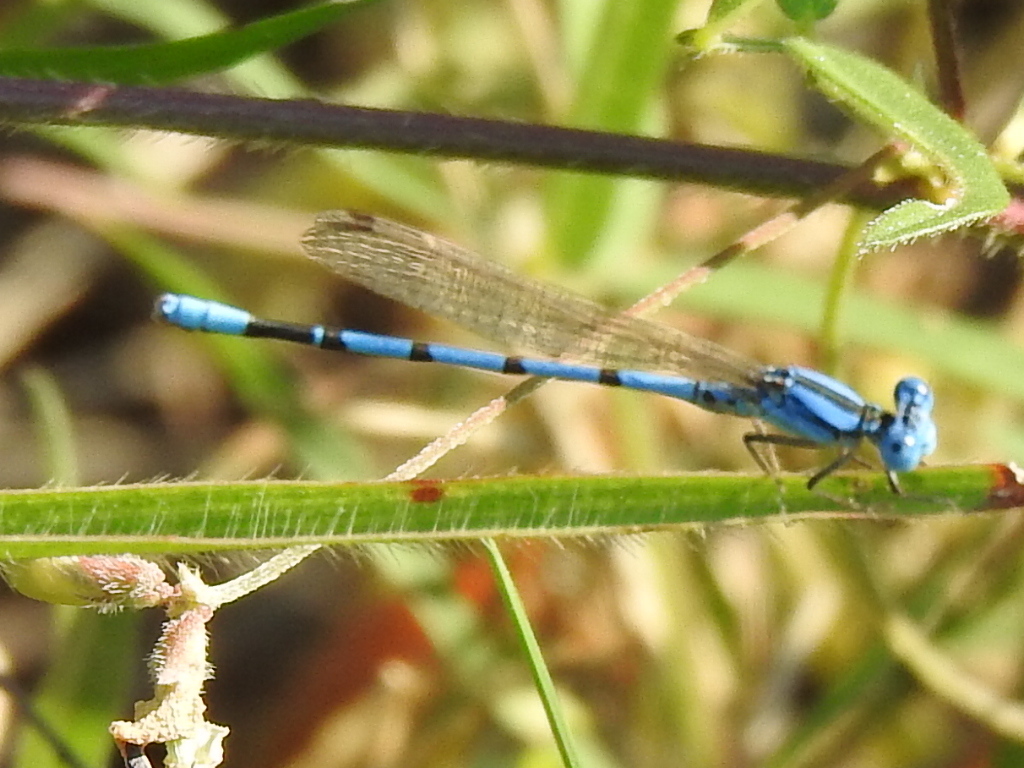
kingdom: Animalia
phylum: Arthropoda
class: Insecta
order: Odonata
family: Coenagrionidae
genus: Argia
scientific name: Argia nahuana
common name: Aztec dancer
